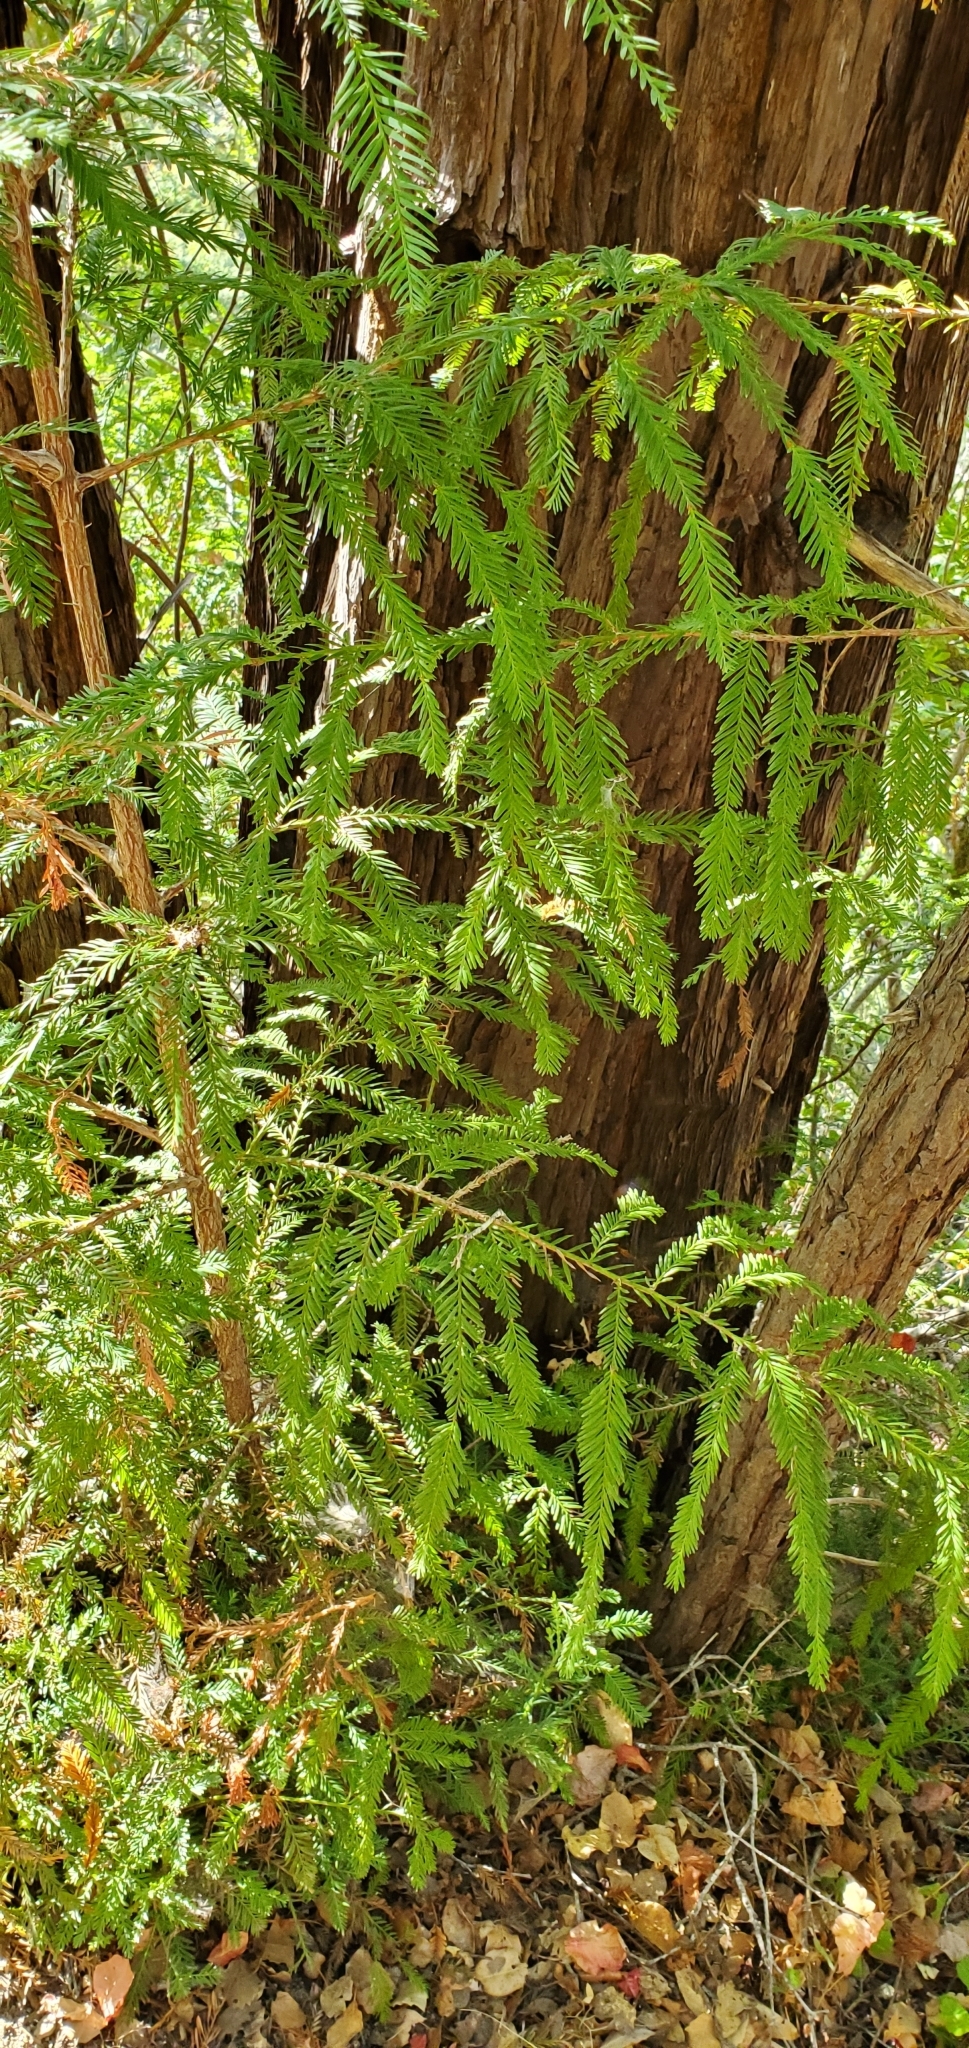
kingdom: Plantae
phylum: Tracheophyta
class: Pinopsida
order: Pinales
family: Cupressaceae
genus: Sequoia
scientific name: Sequoia sempervirens
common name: Coast redwood
